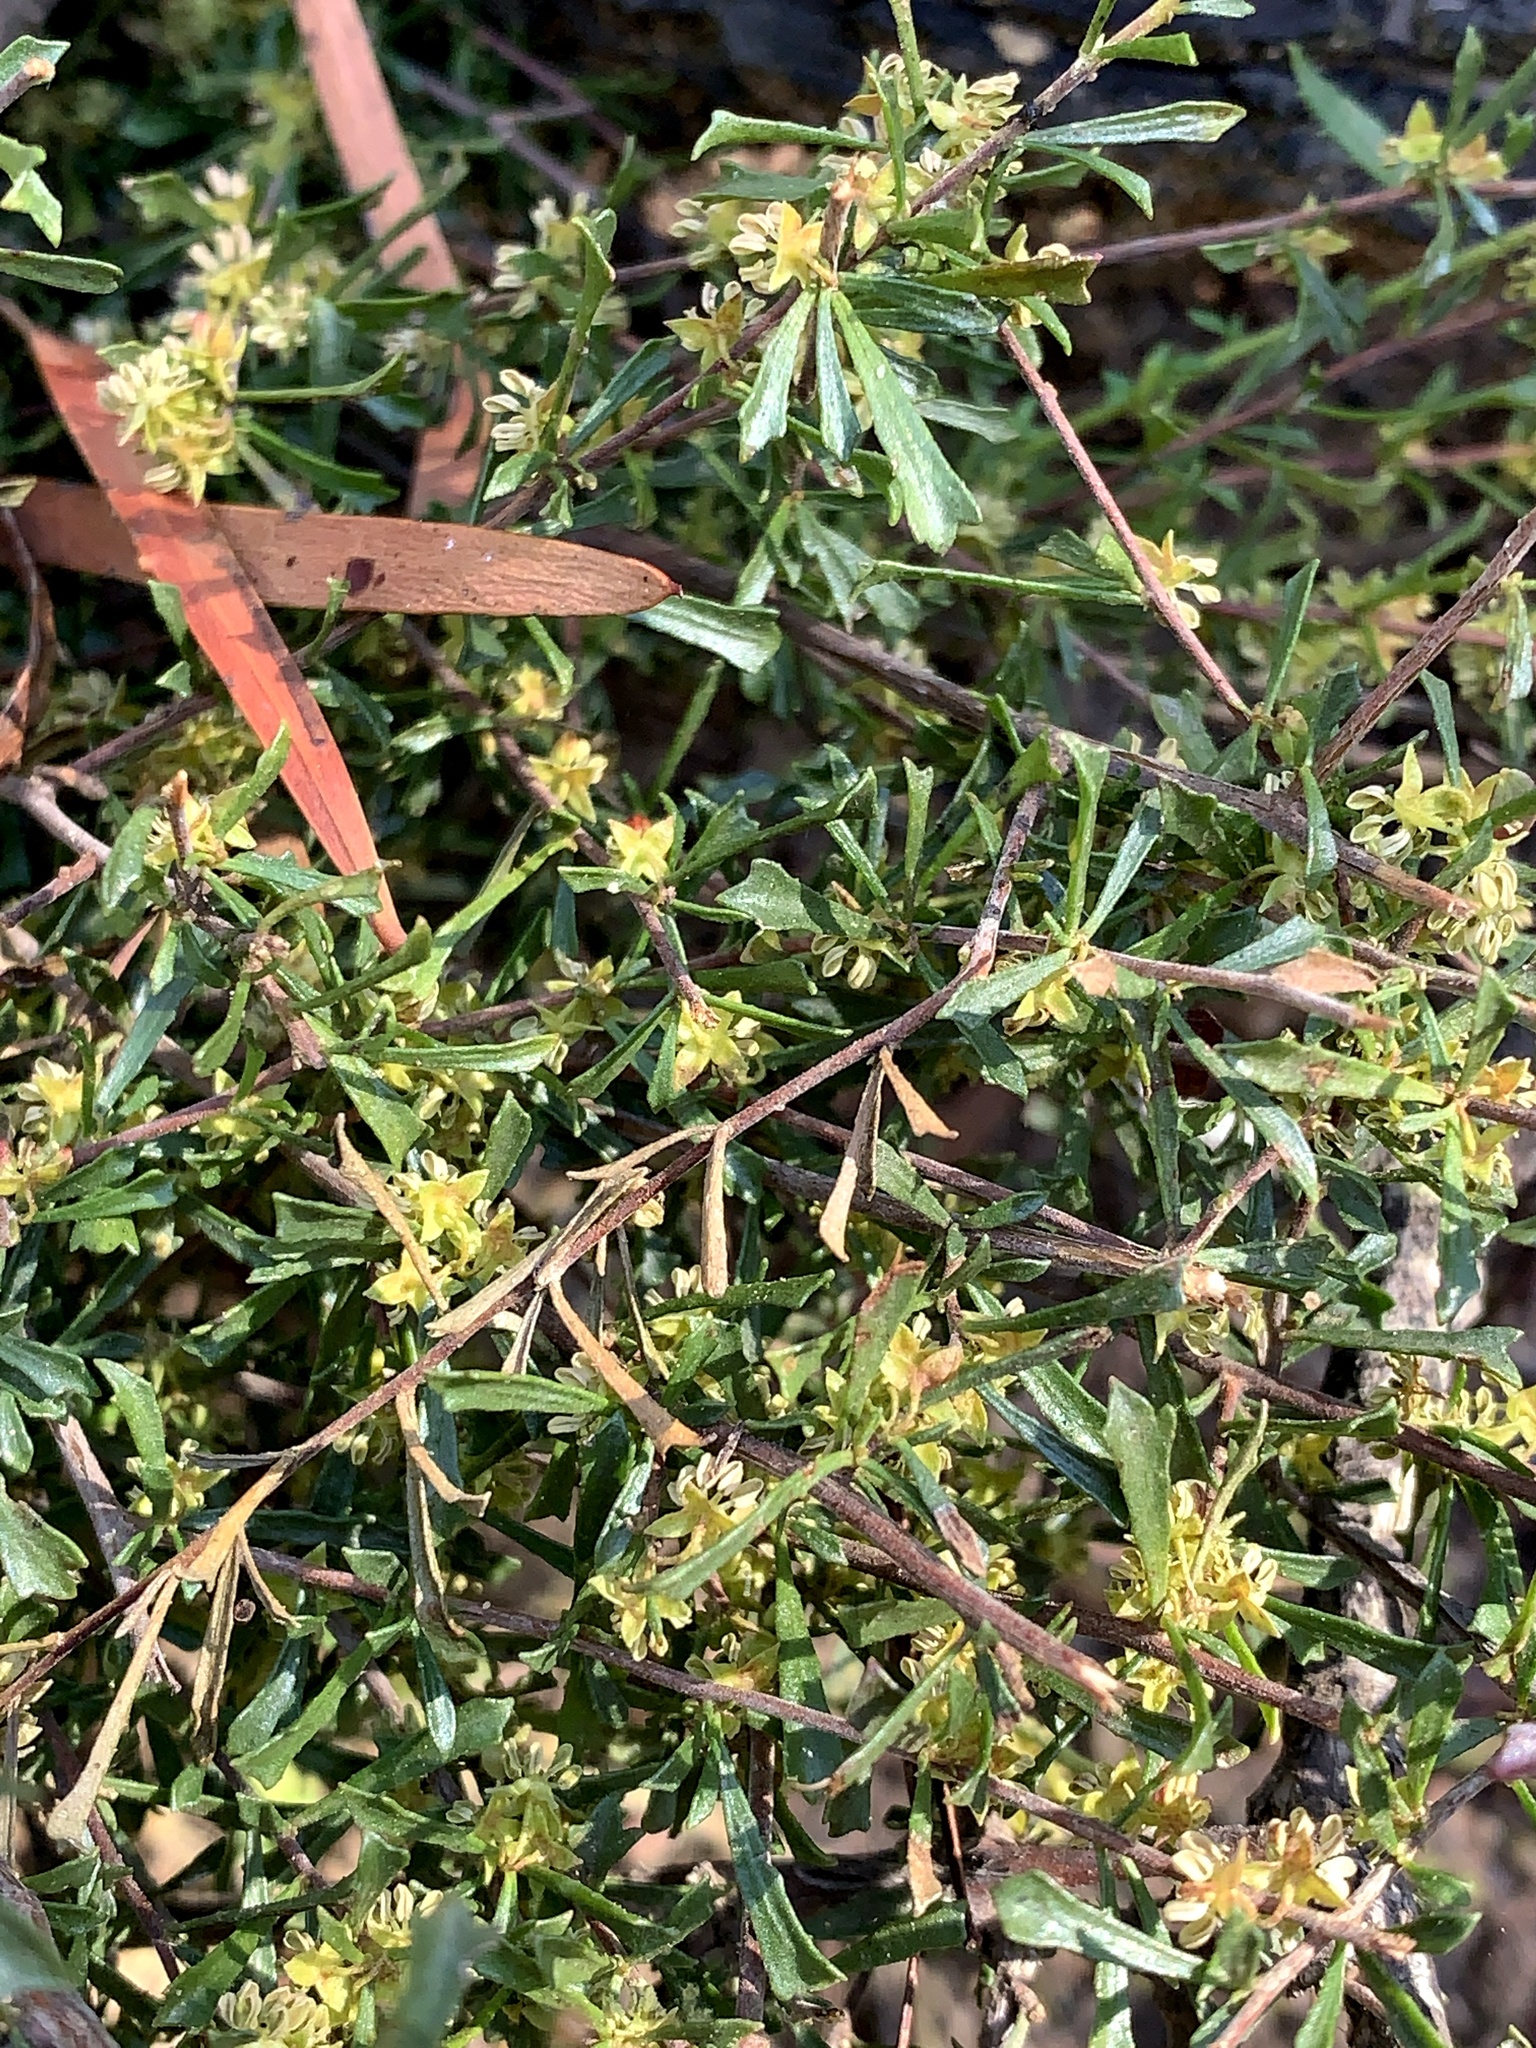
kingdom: Plantae
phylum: Tracheophyta
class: Magnoliopsida
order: Sapindales
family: Sapindaceae
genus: Dodonaea
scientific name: Dodonaea peduncularis
